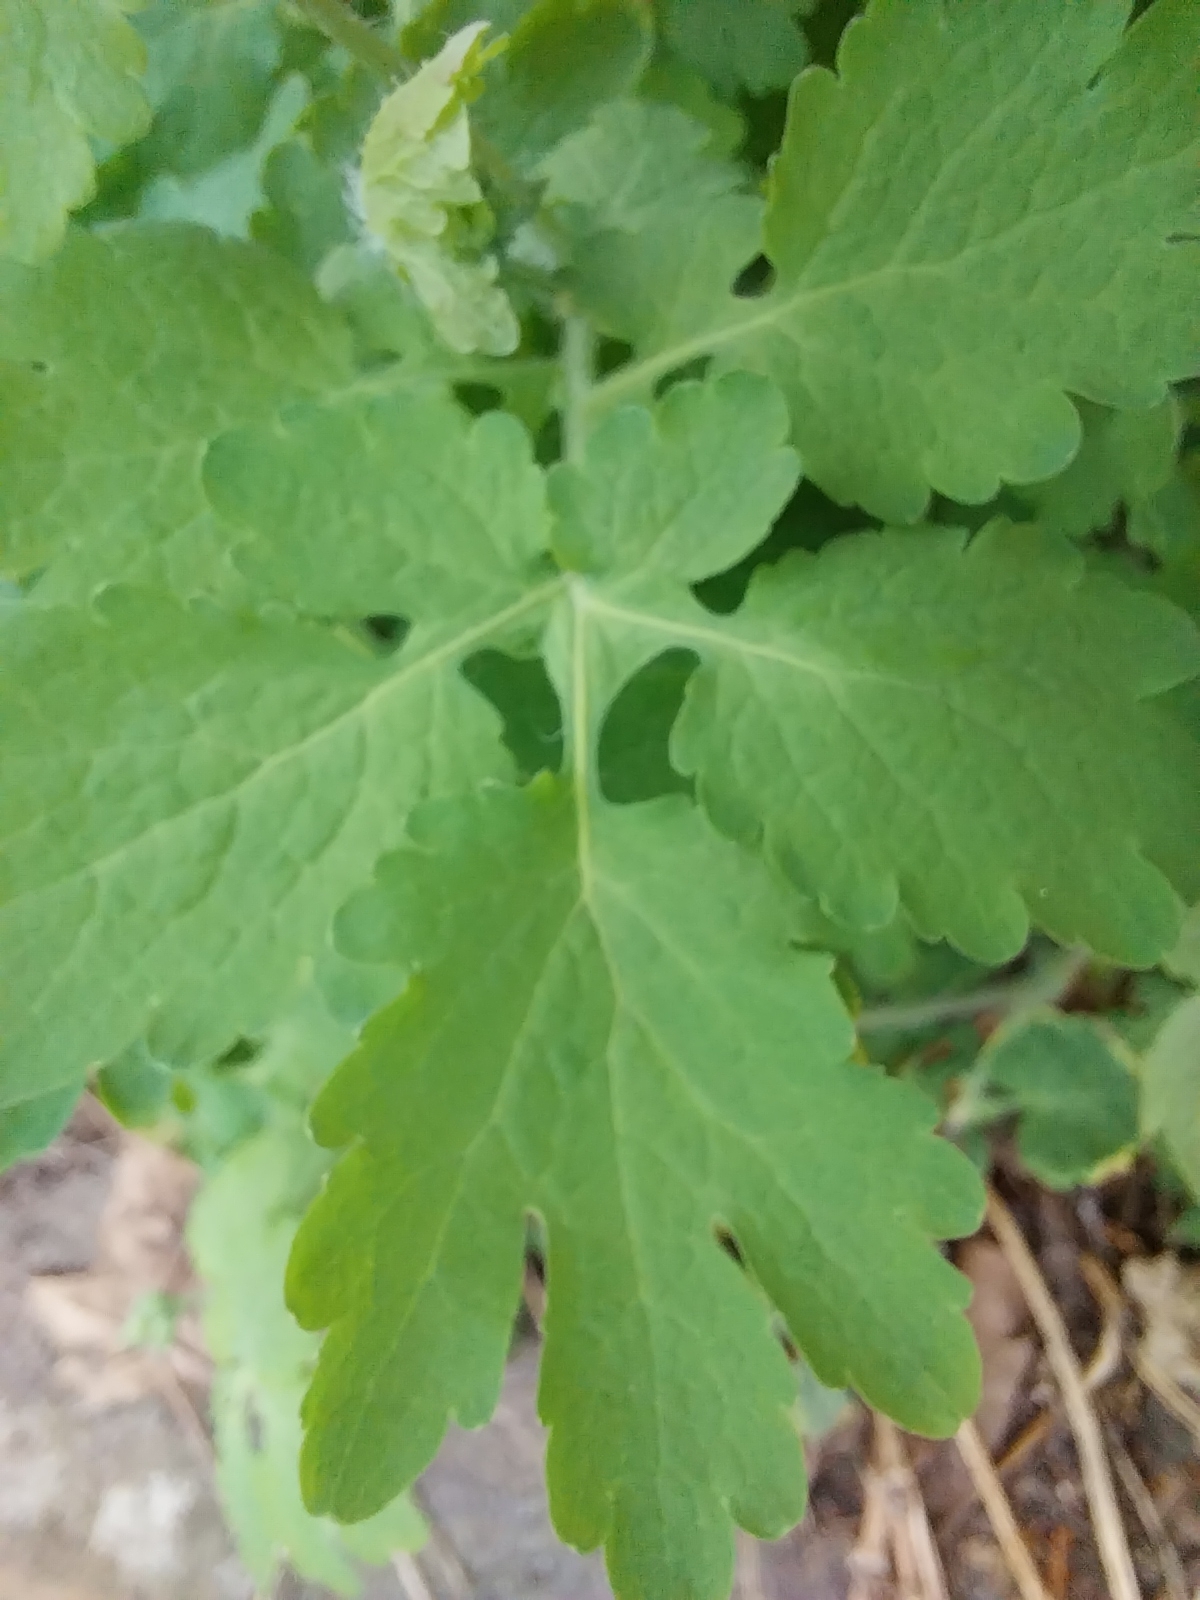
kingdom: Plantae
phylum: Tracheophyta
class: Magnoliopsida
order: Ranunculales
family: Papaveraceae
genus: Chelidonium
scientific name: Chelidonium majus
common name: Greater celandine
